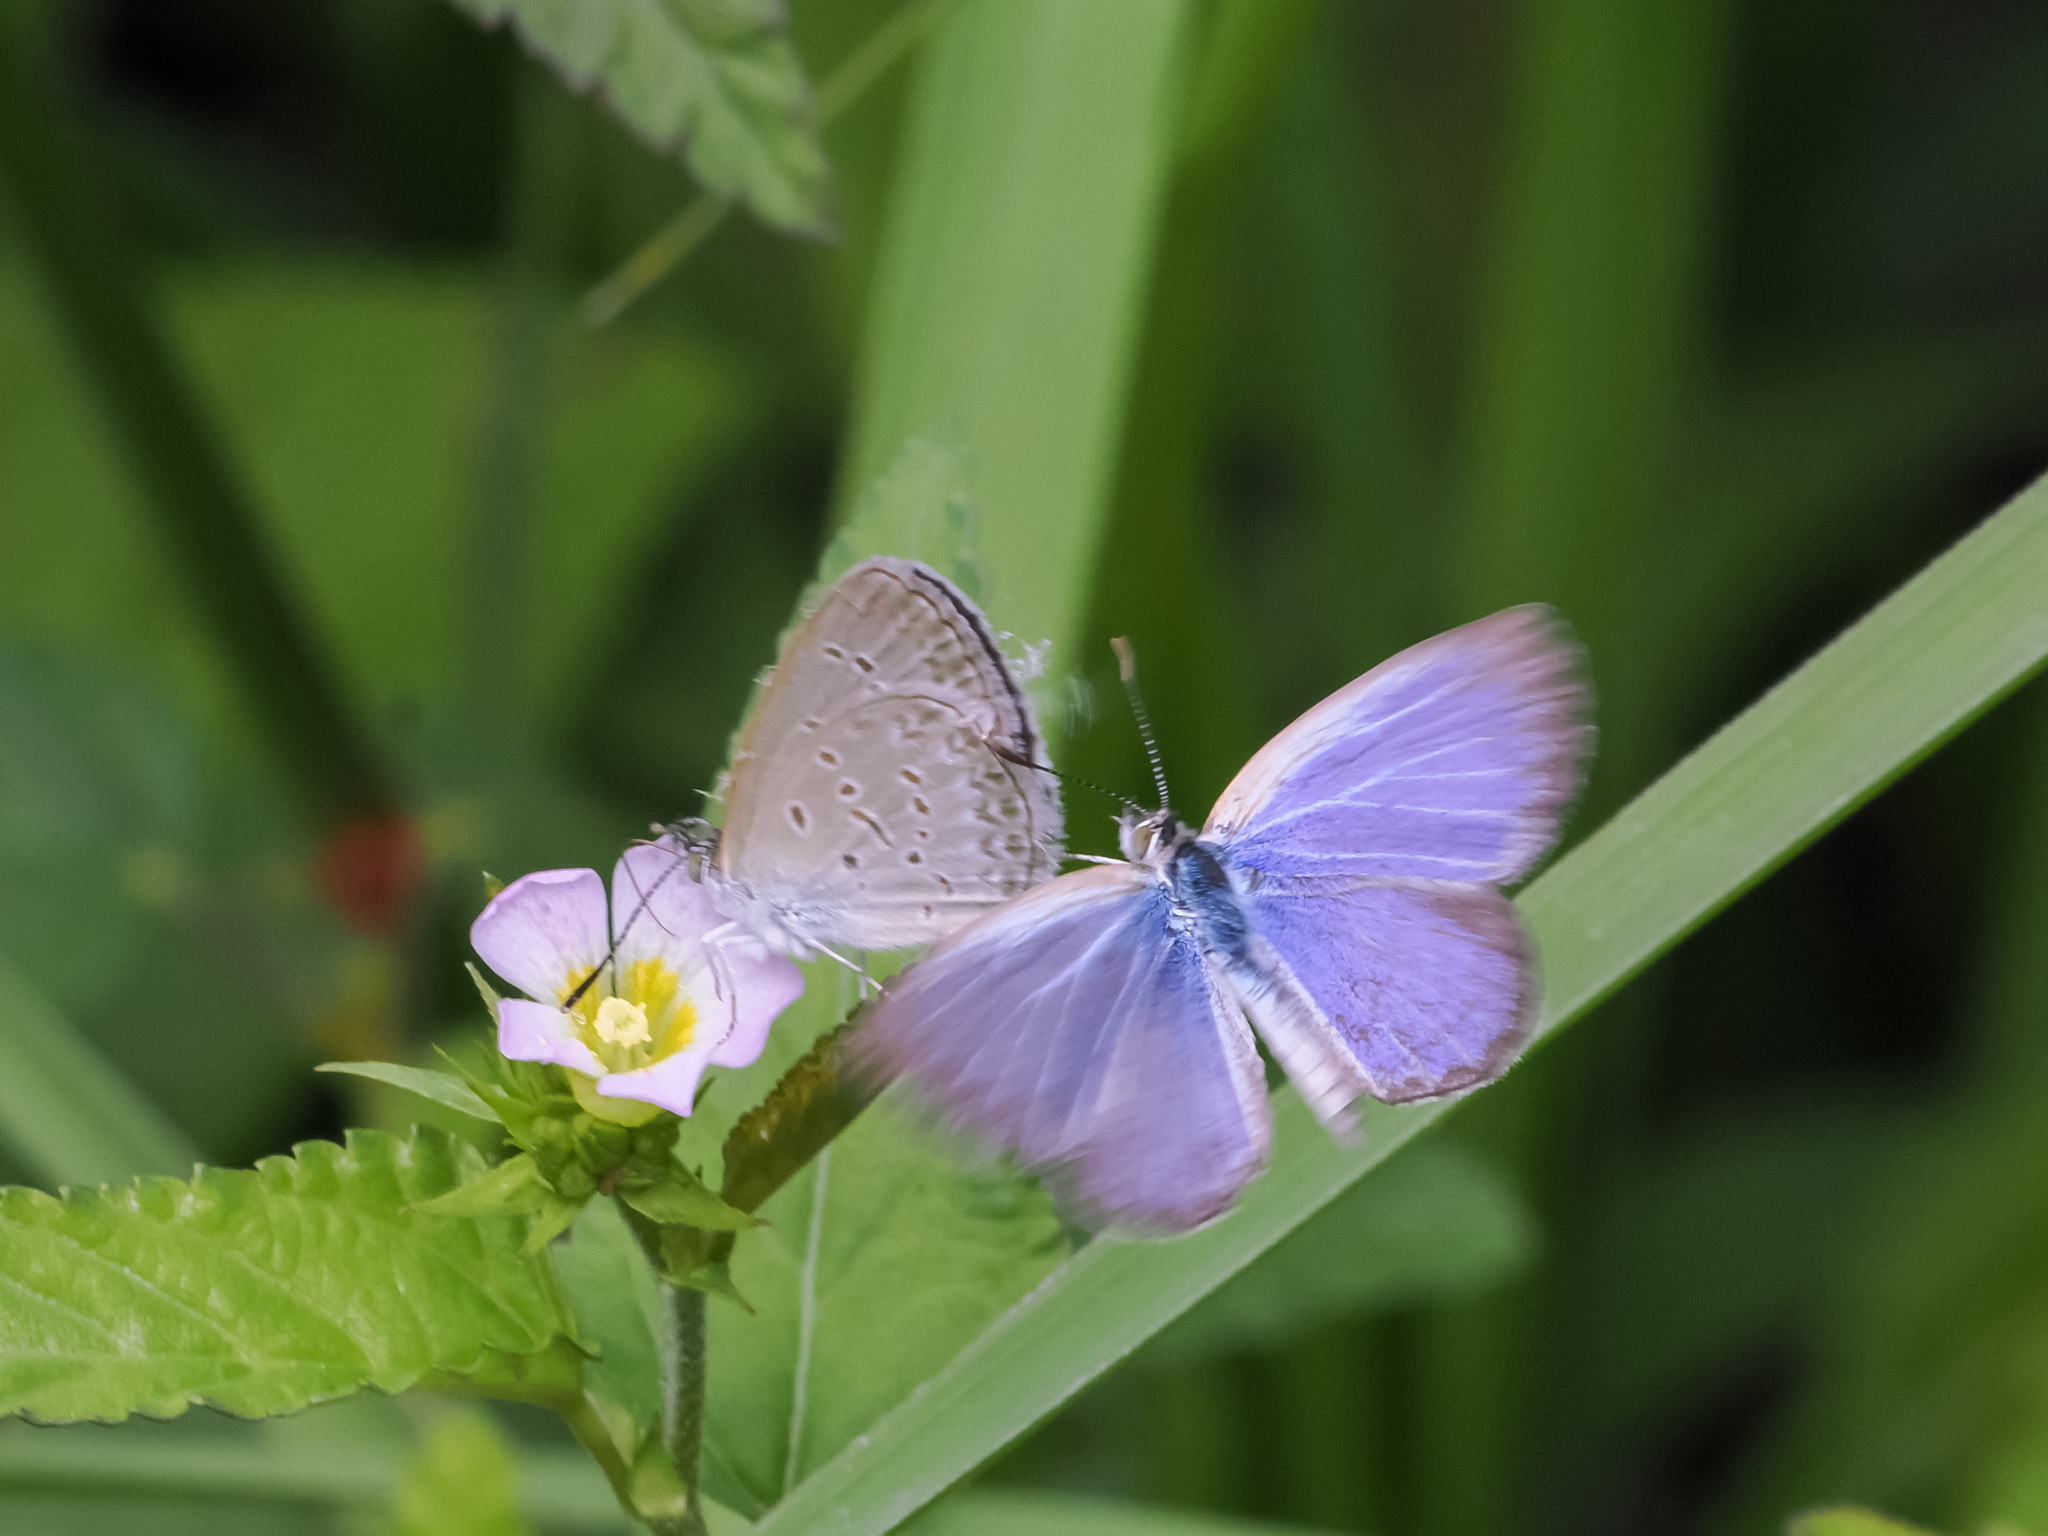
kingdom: Animalia
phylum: Arthropoda
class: Insecta
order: Lepidoptera
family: Lycaenidae
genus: Zizina
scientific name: Zizina otis
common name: Lesser grass blue
